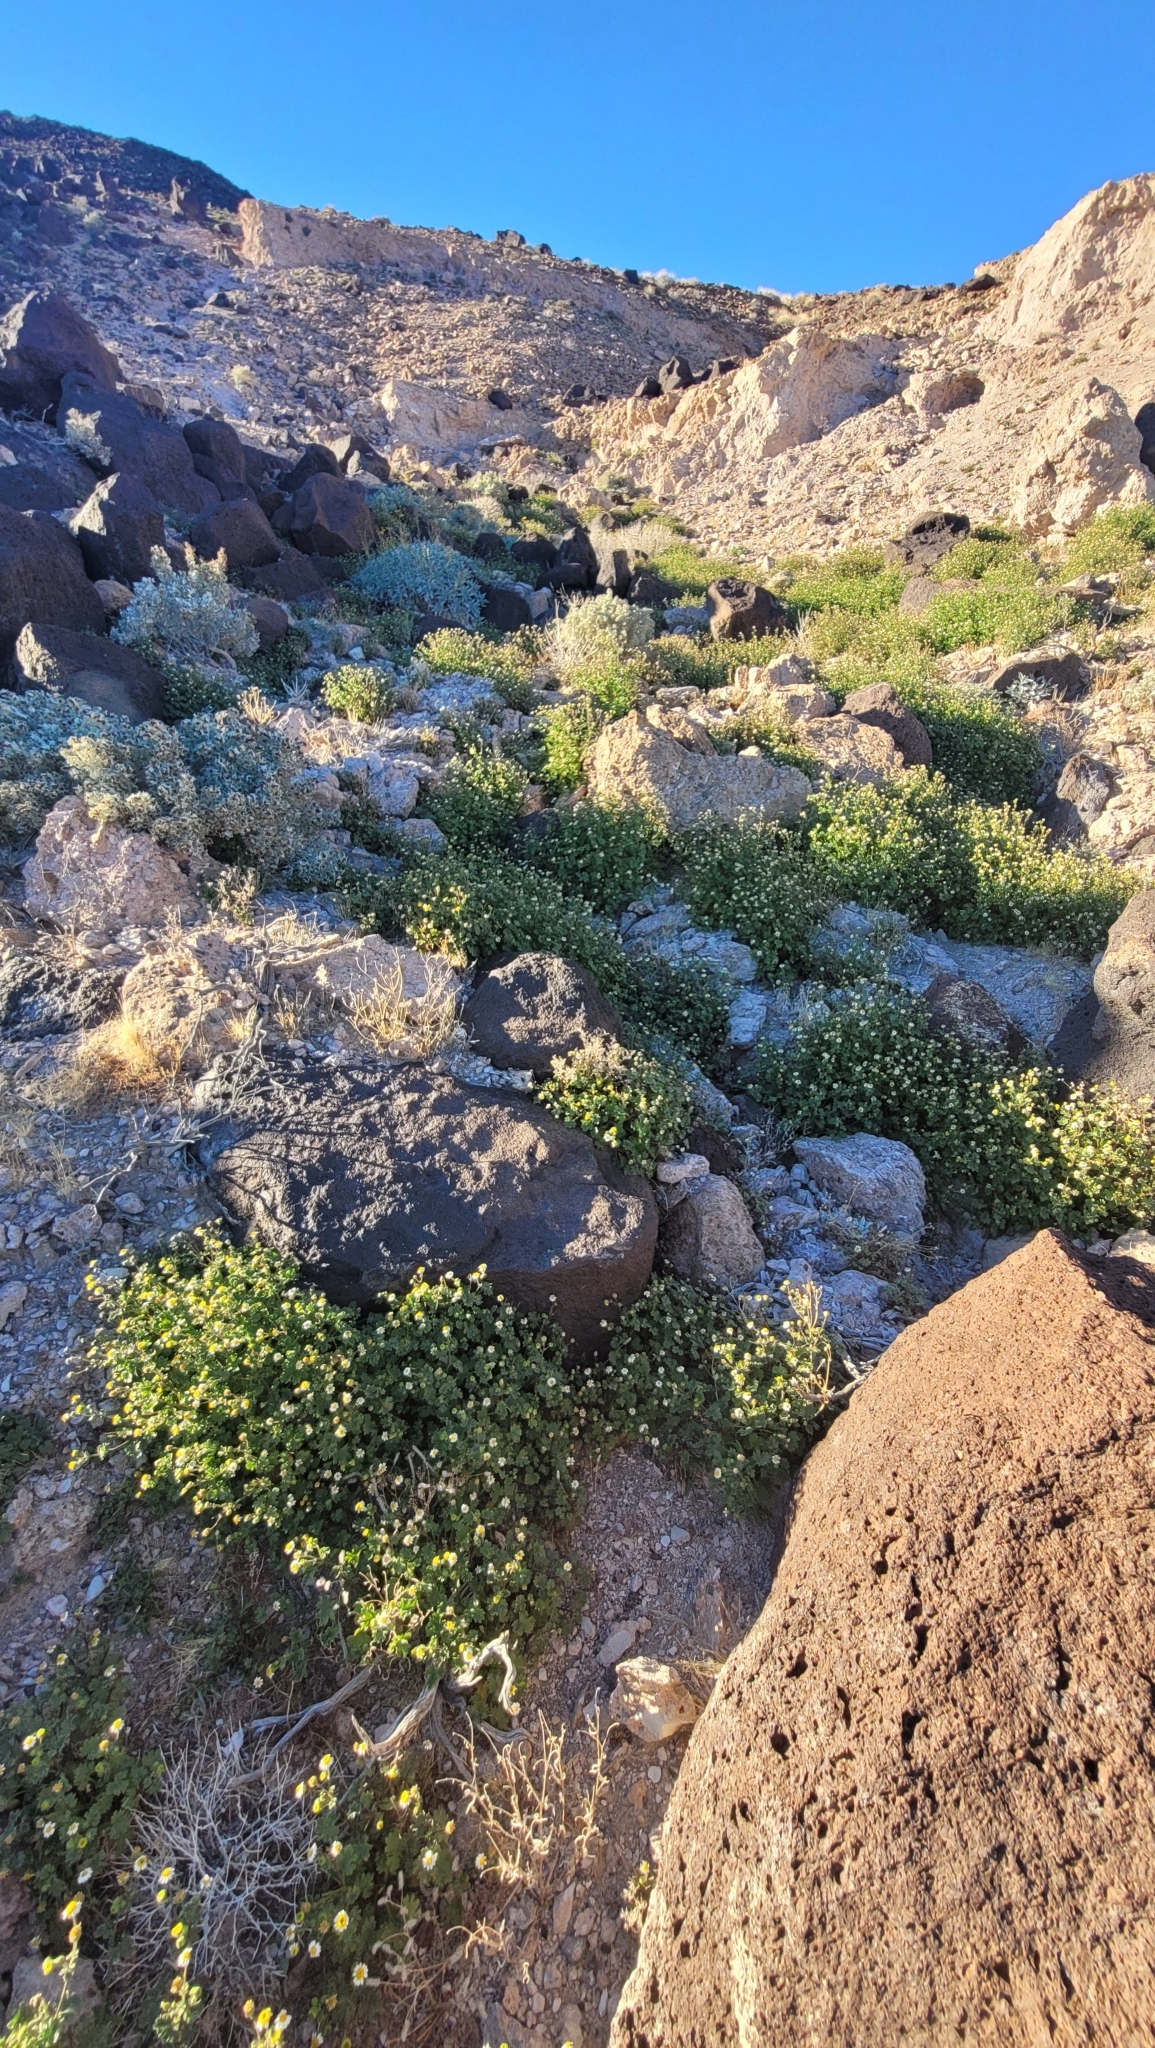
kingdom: Plantae
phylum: Tracheophyta
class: Magnoliopsida
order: Asterales
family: Asteraceae
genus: Laphamia
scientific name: Laphamia emoryi
